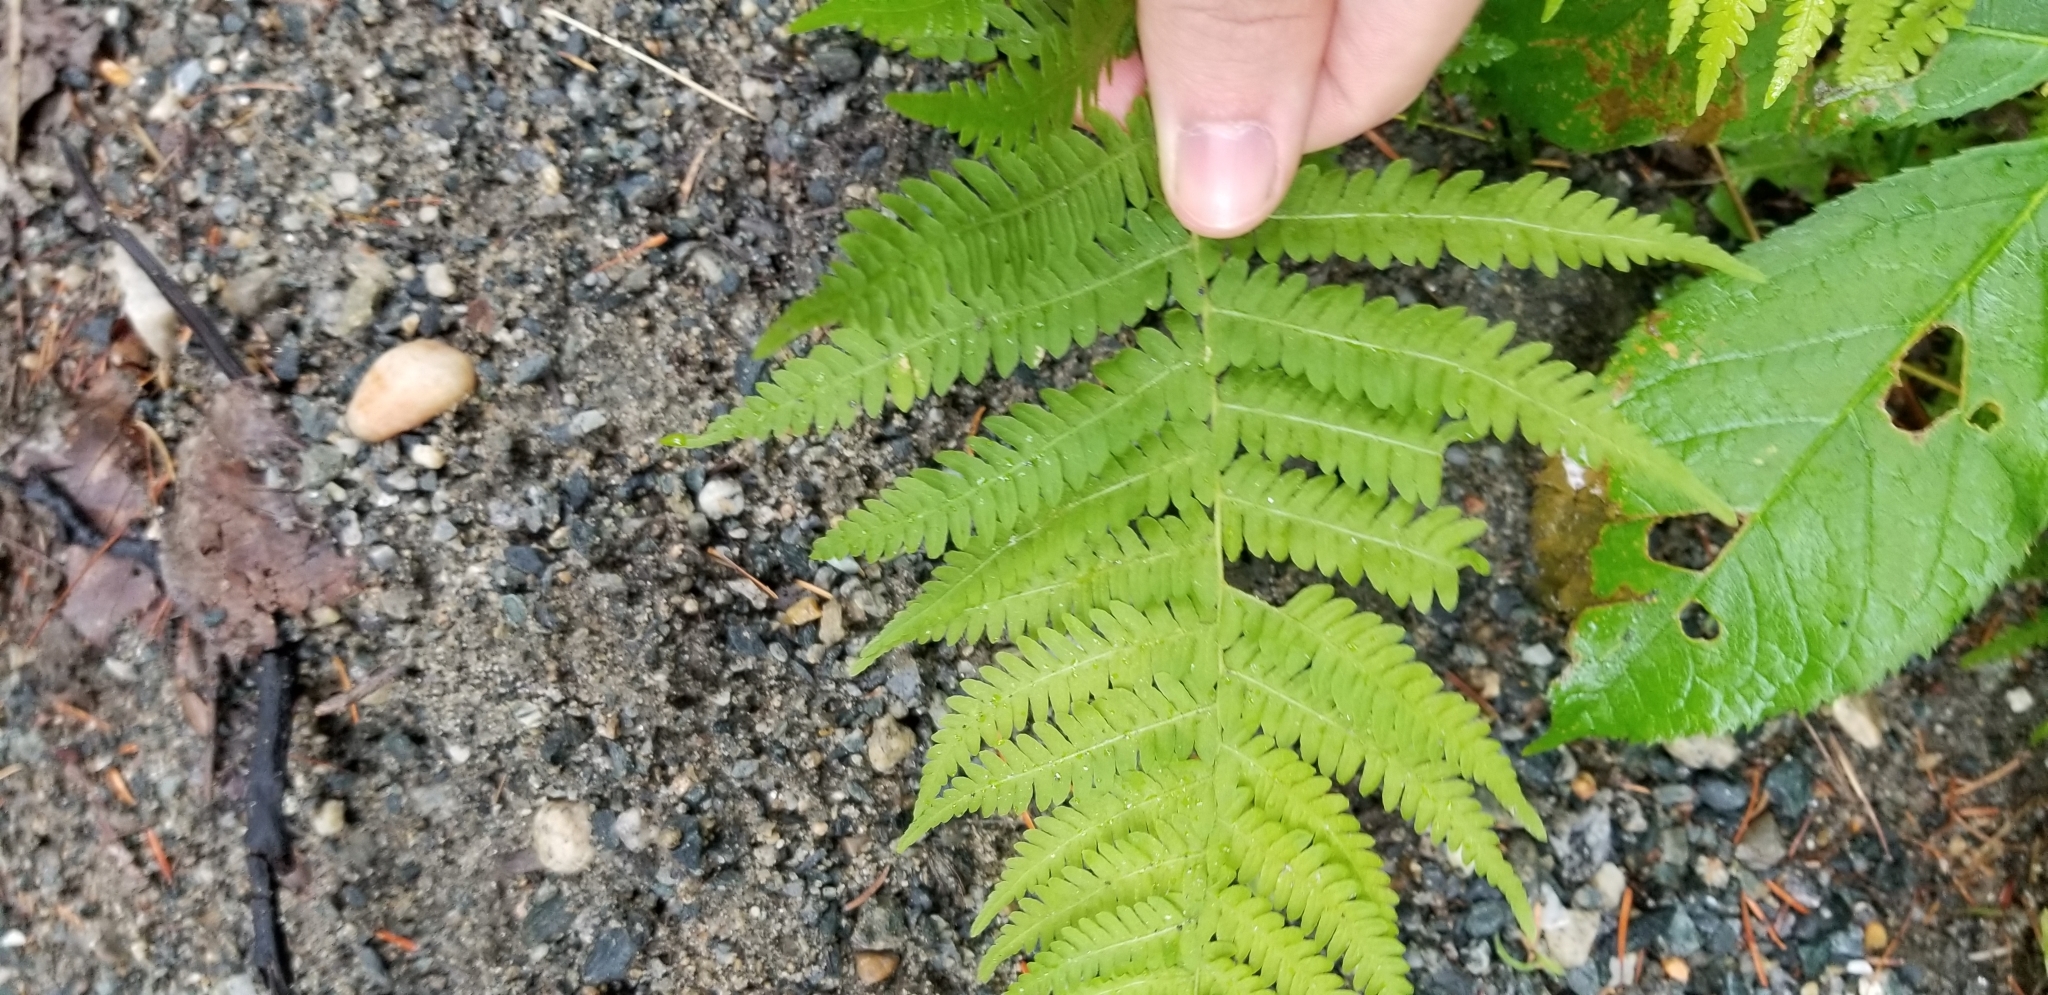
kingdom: Plantae
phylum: Tracheophyta
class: Polypodiopsida
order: Polypodiales
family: Thelypteridaceae
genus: Amauropelta
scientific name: Amauropelta noveboracensis
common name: New york fern
